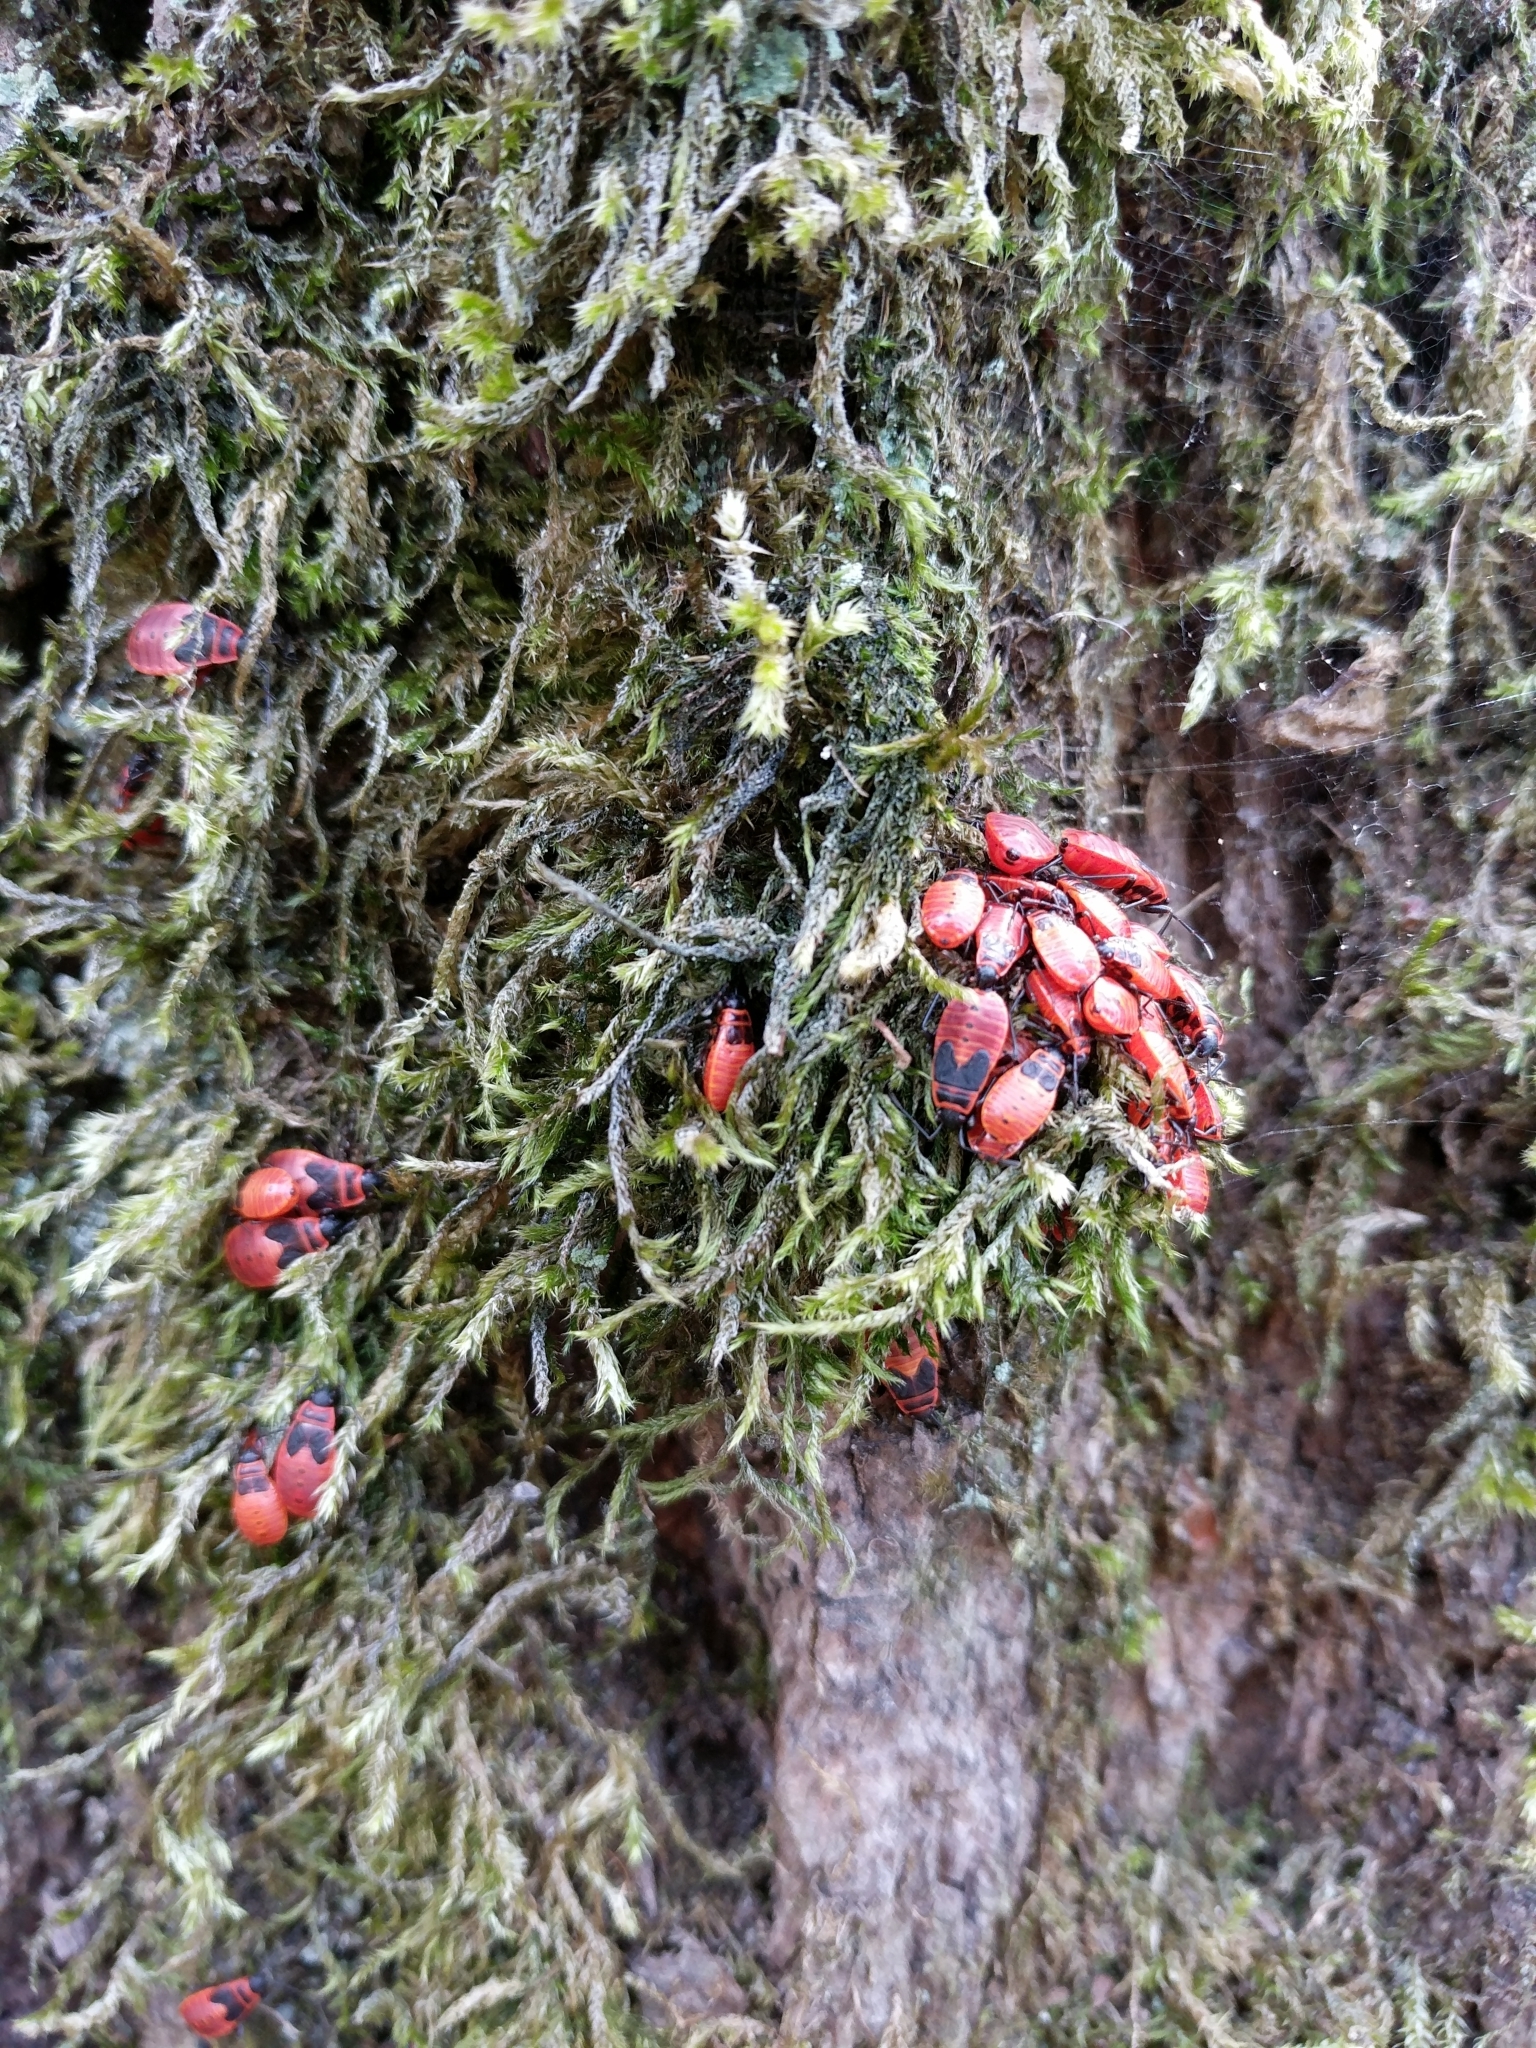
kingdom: Animalia
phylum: Arthropoda
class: Insecta
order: Hemiptera
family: Pyrrhocoridae
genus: Pyrrhocoris
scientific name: Pyrrhocoris apterus
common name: Firebug
